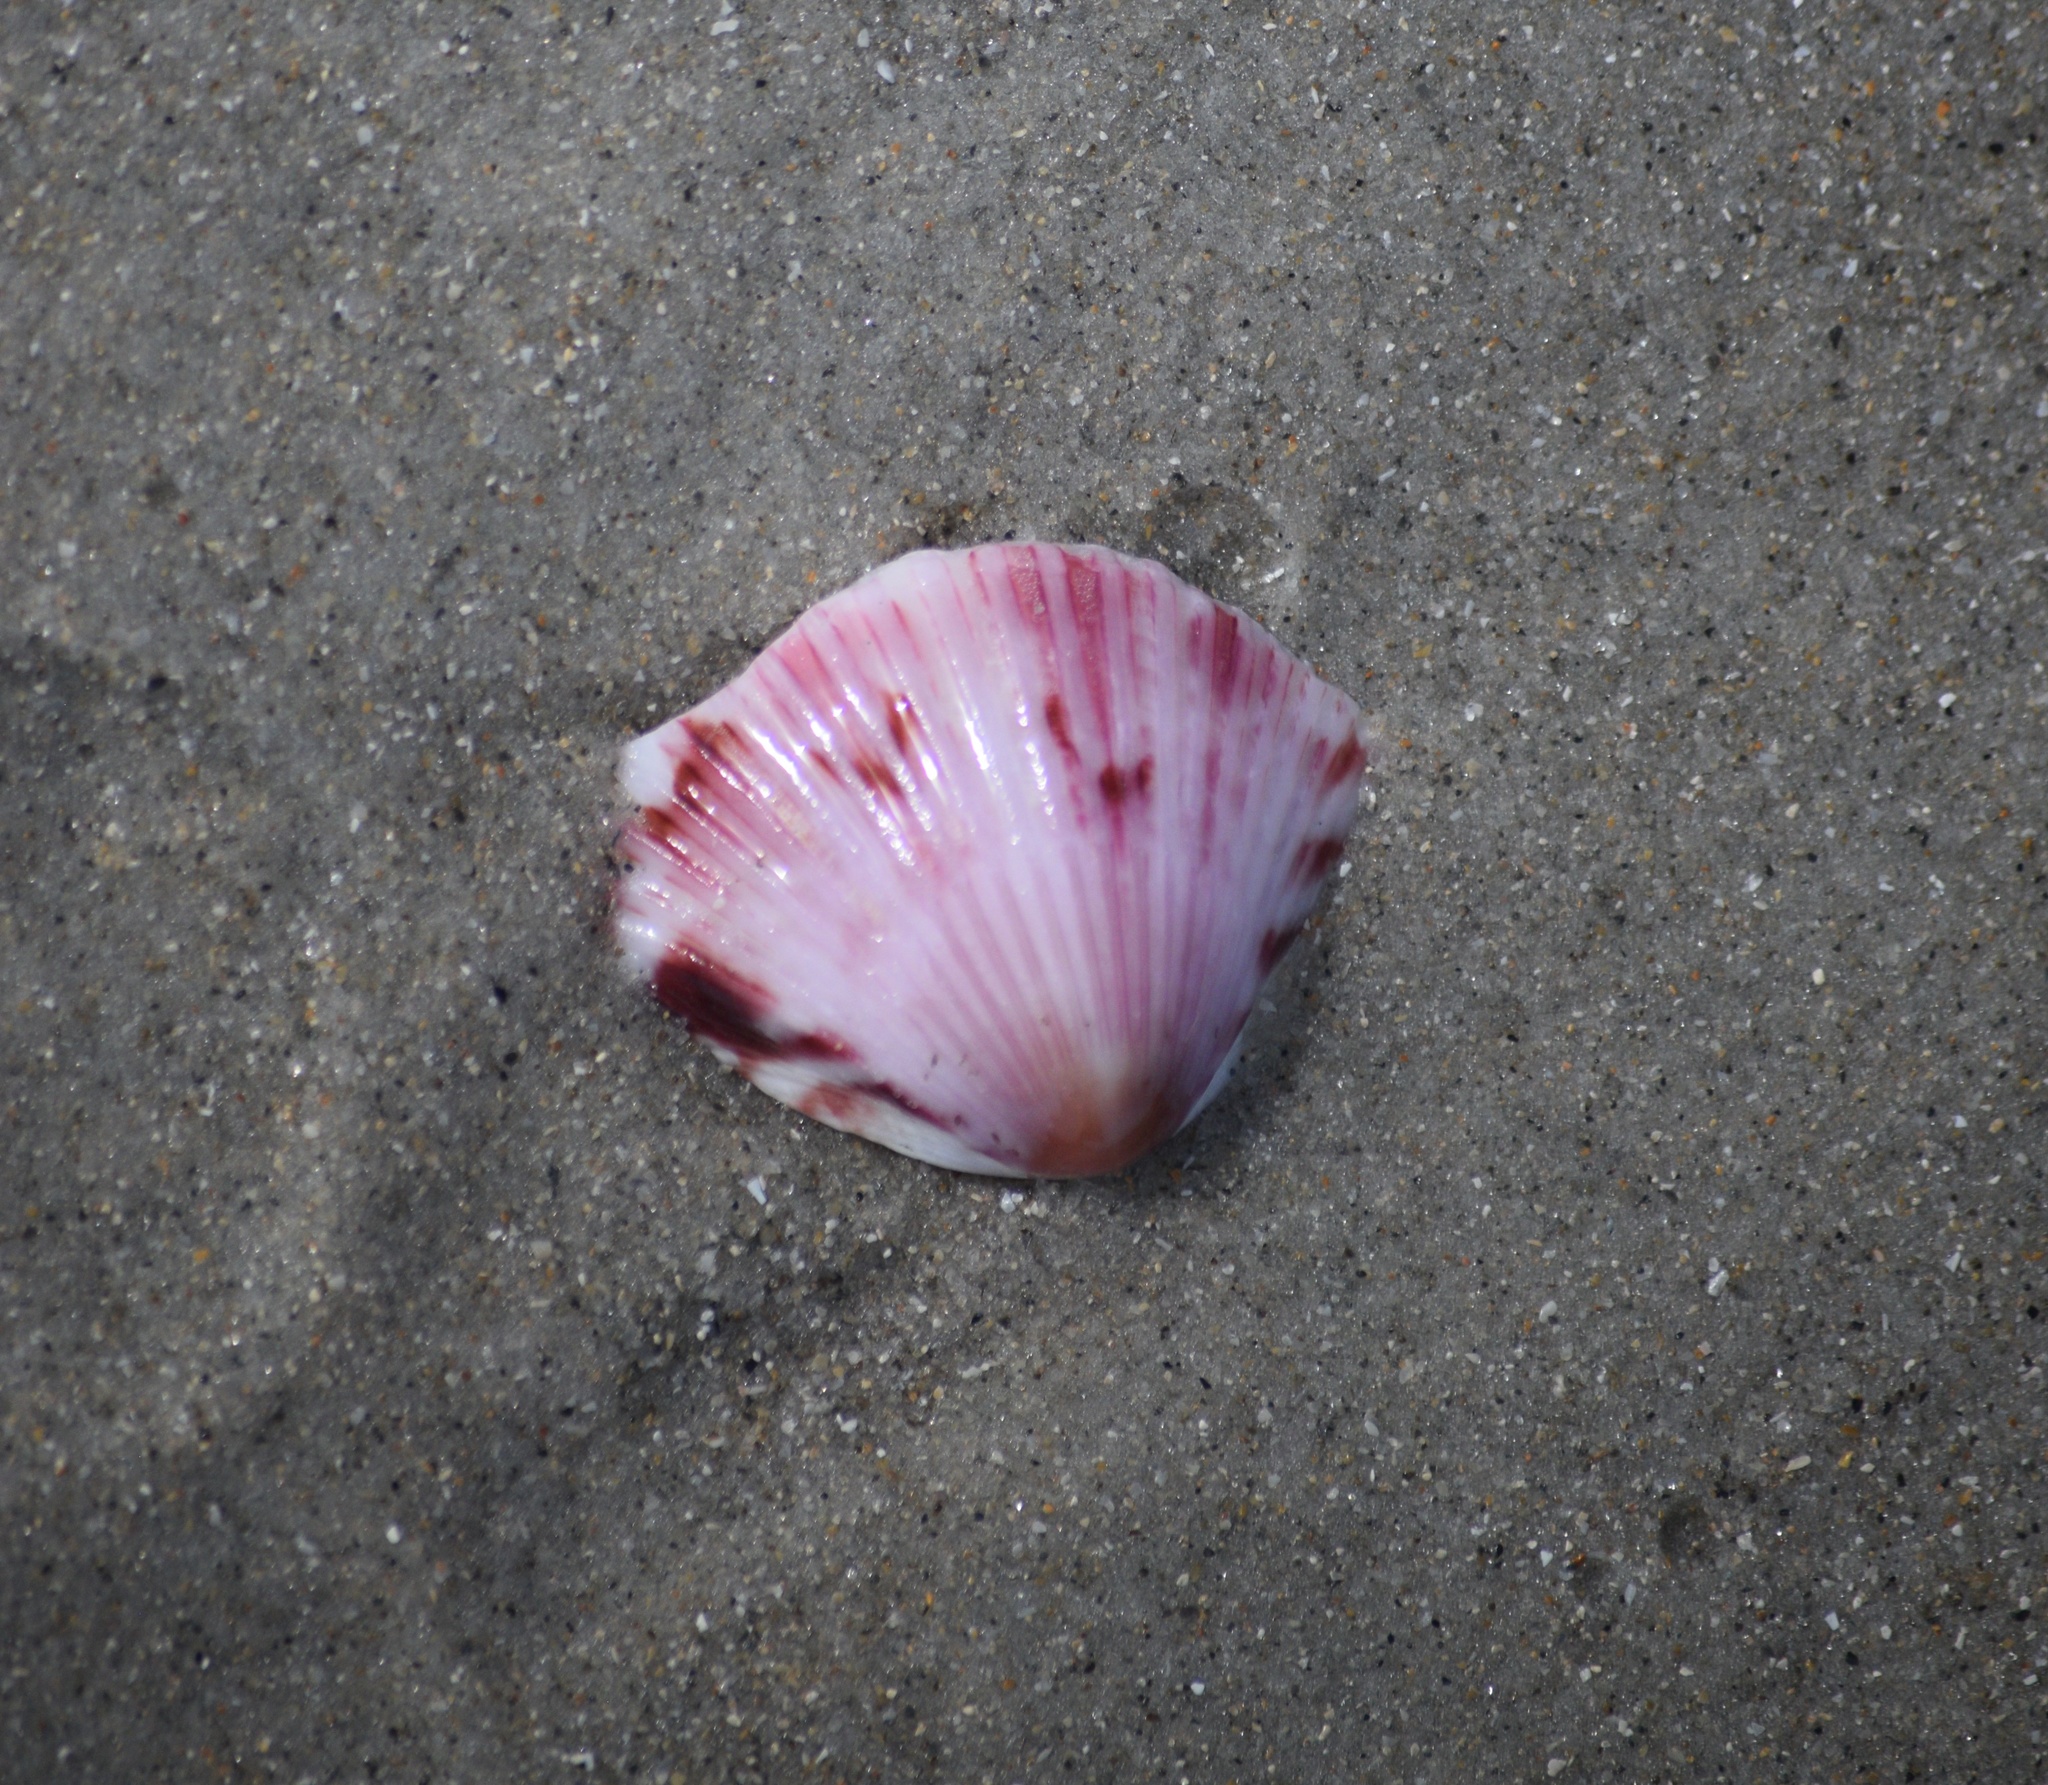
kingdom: Animalia
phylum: Mollusca
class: Bivalvia
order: Pectinida
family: Pectinidae
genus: Argopecten
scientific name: Argopecten gibbus
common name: Atlantic calico scallop
